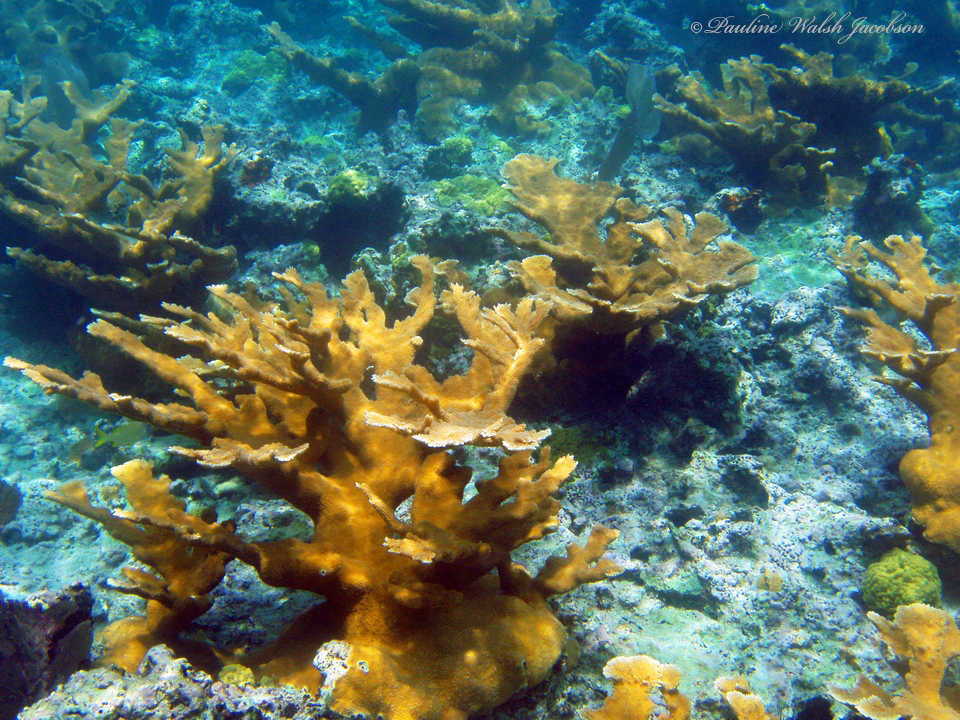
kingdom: Animalia
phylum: Cnidaria
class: Anthozoa
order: Scleractinia
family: Acroporidae
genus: Acropora
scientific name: Acropora palmata
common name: Elkhorn coral
